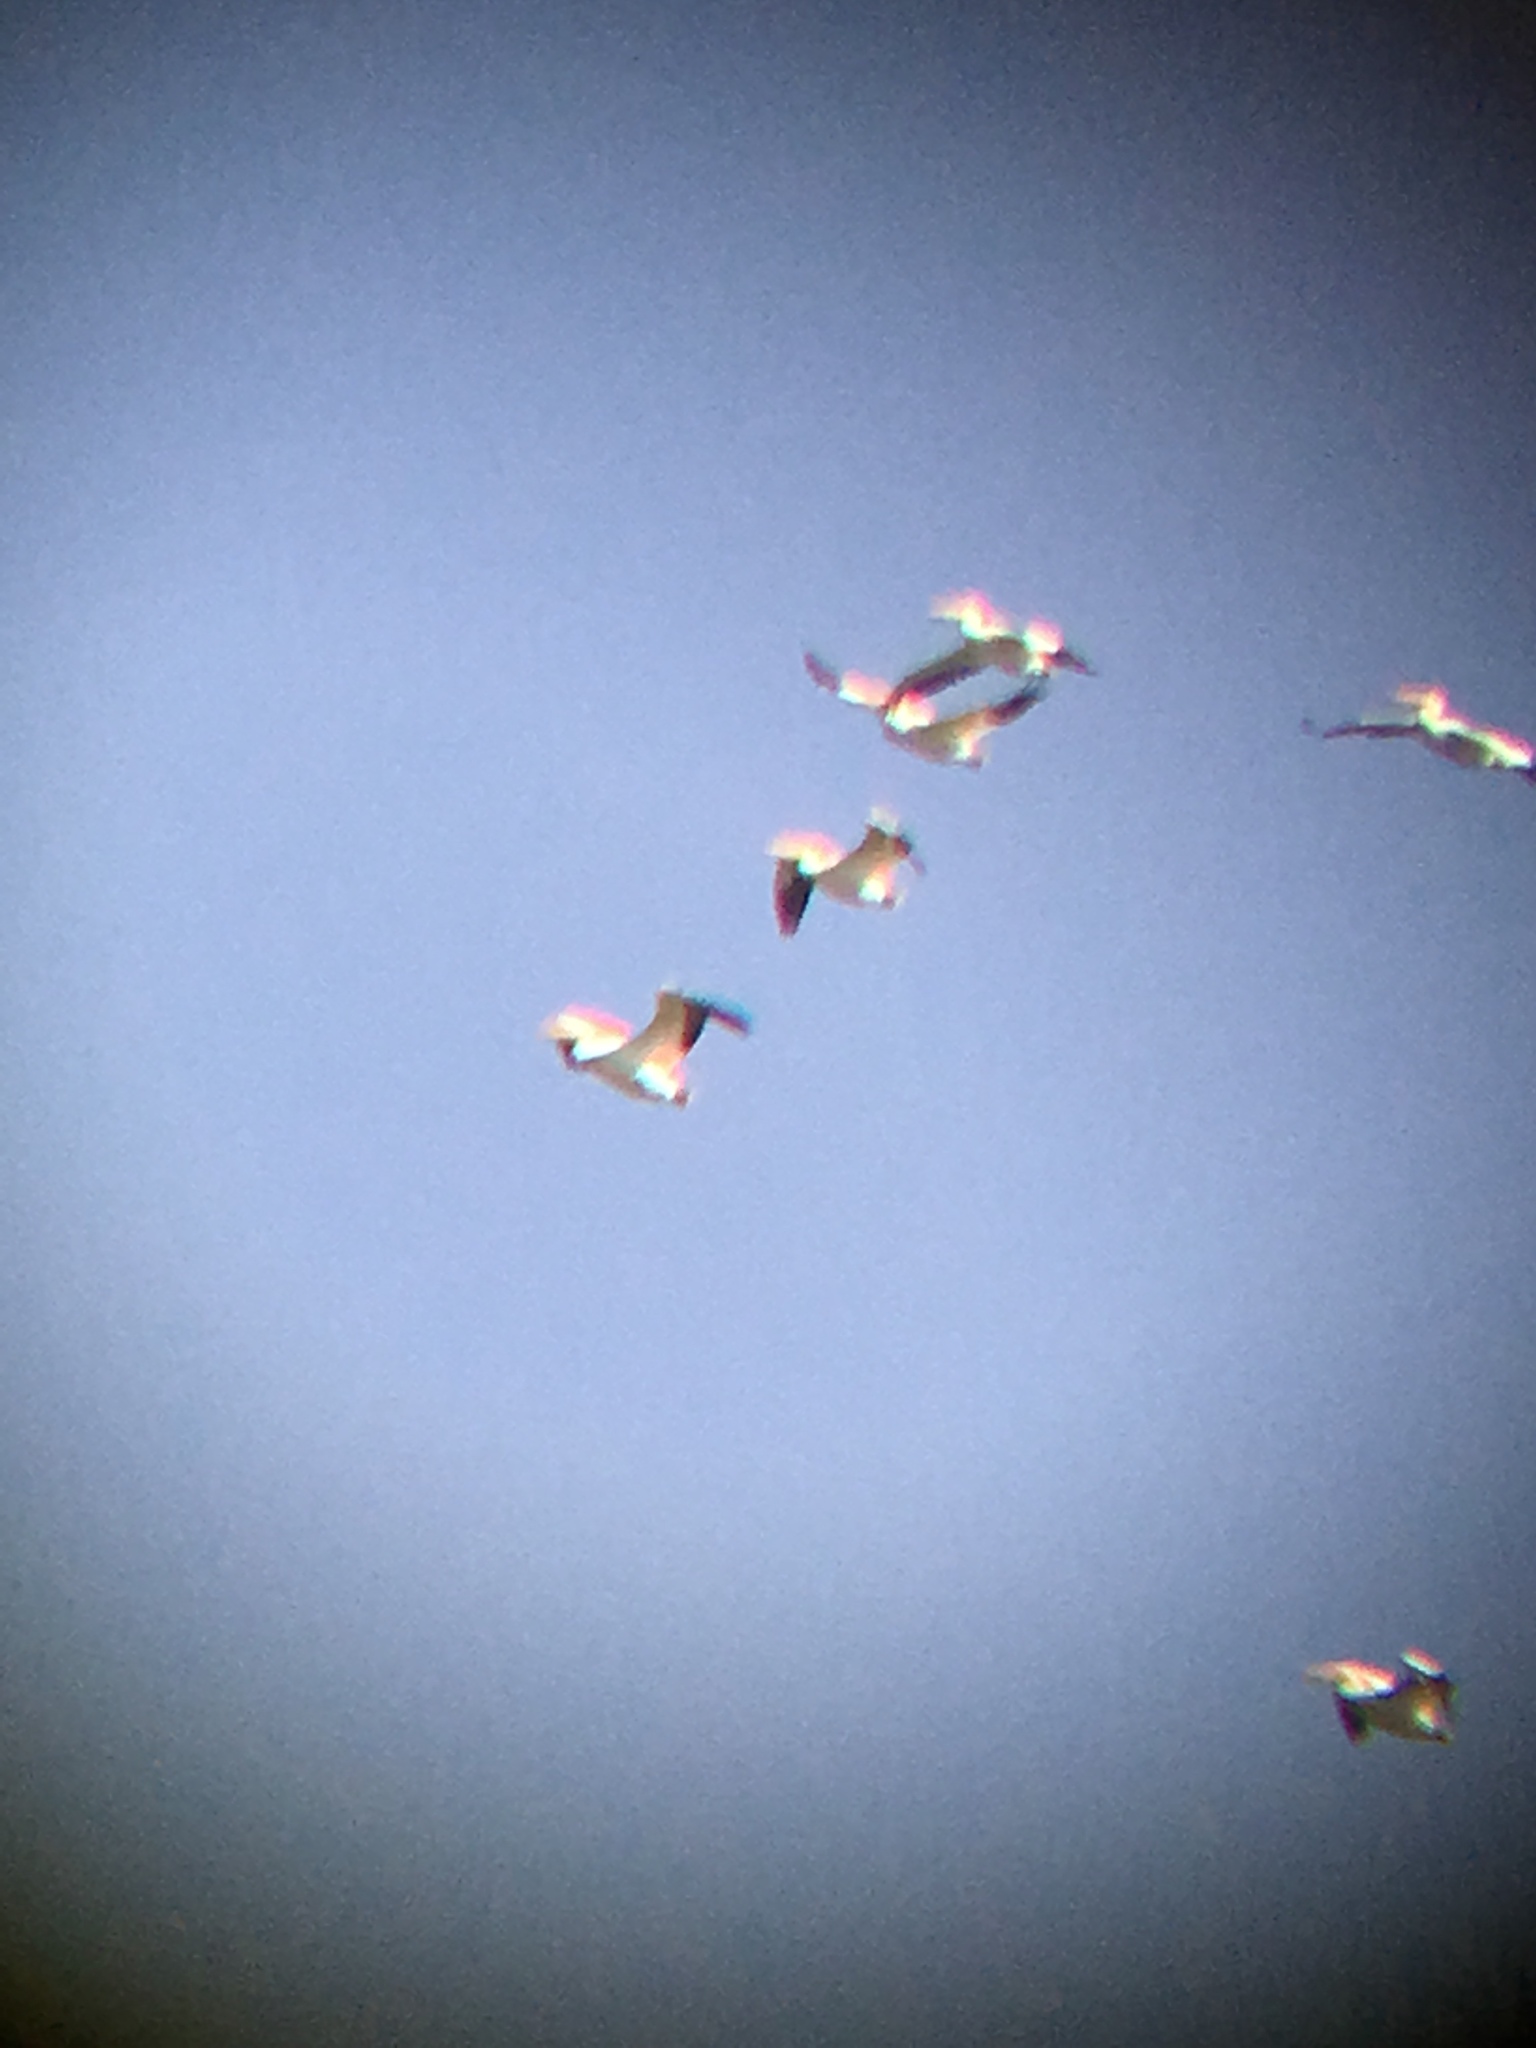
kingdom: Animalia
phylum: Chordata
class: Aves
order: Pelecaniformes
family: Pelecanidae
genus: Pelecanus
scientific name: Pelecanus erythrorhynchos
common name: American white pelican
